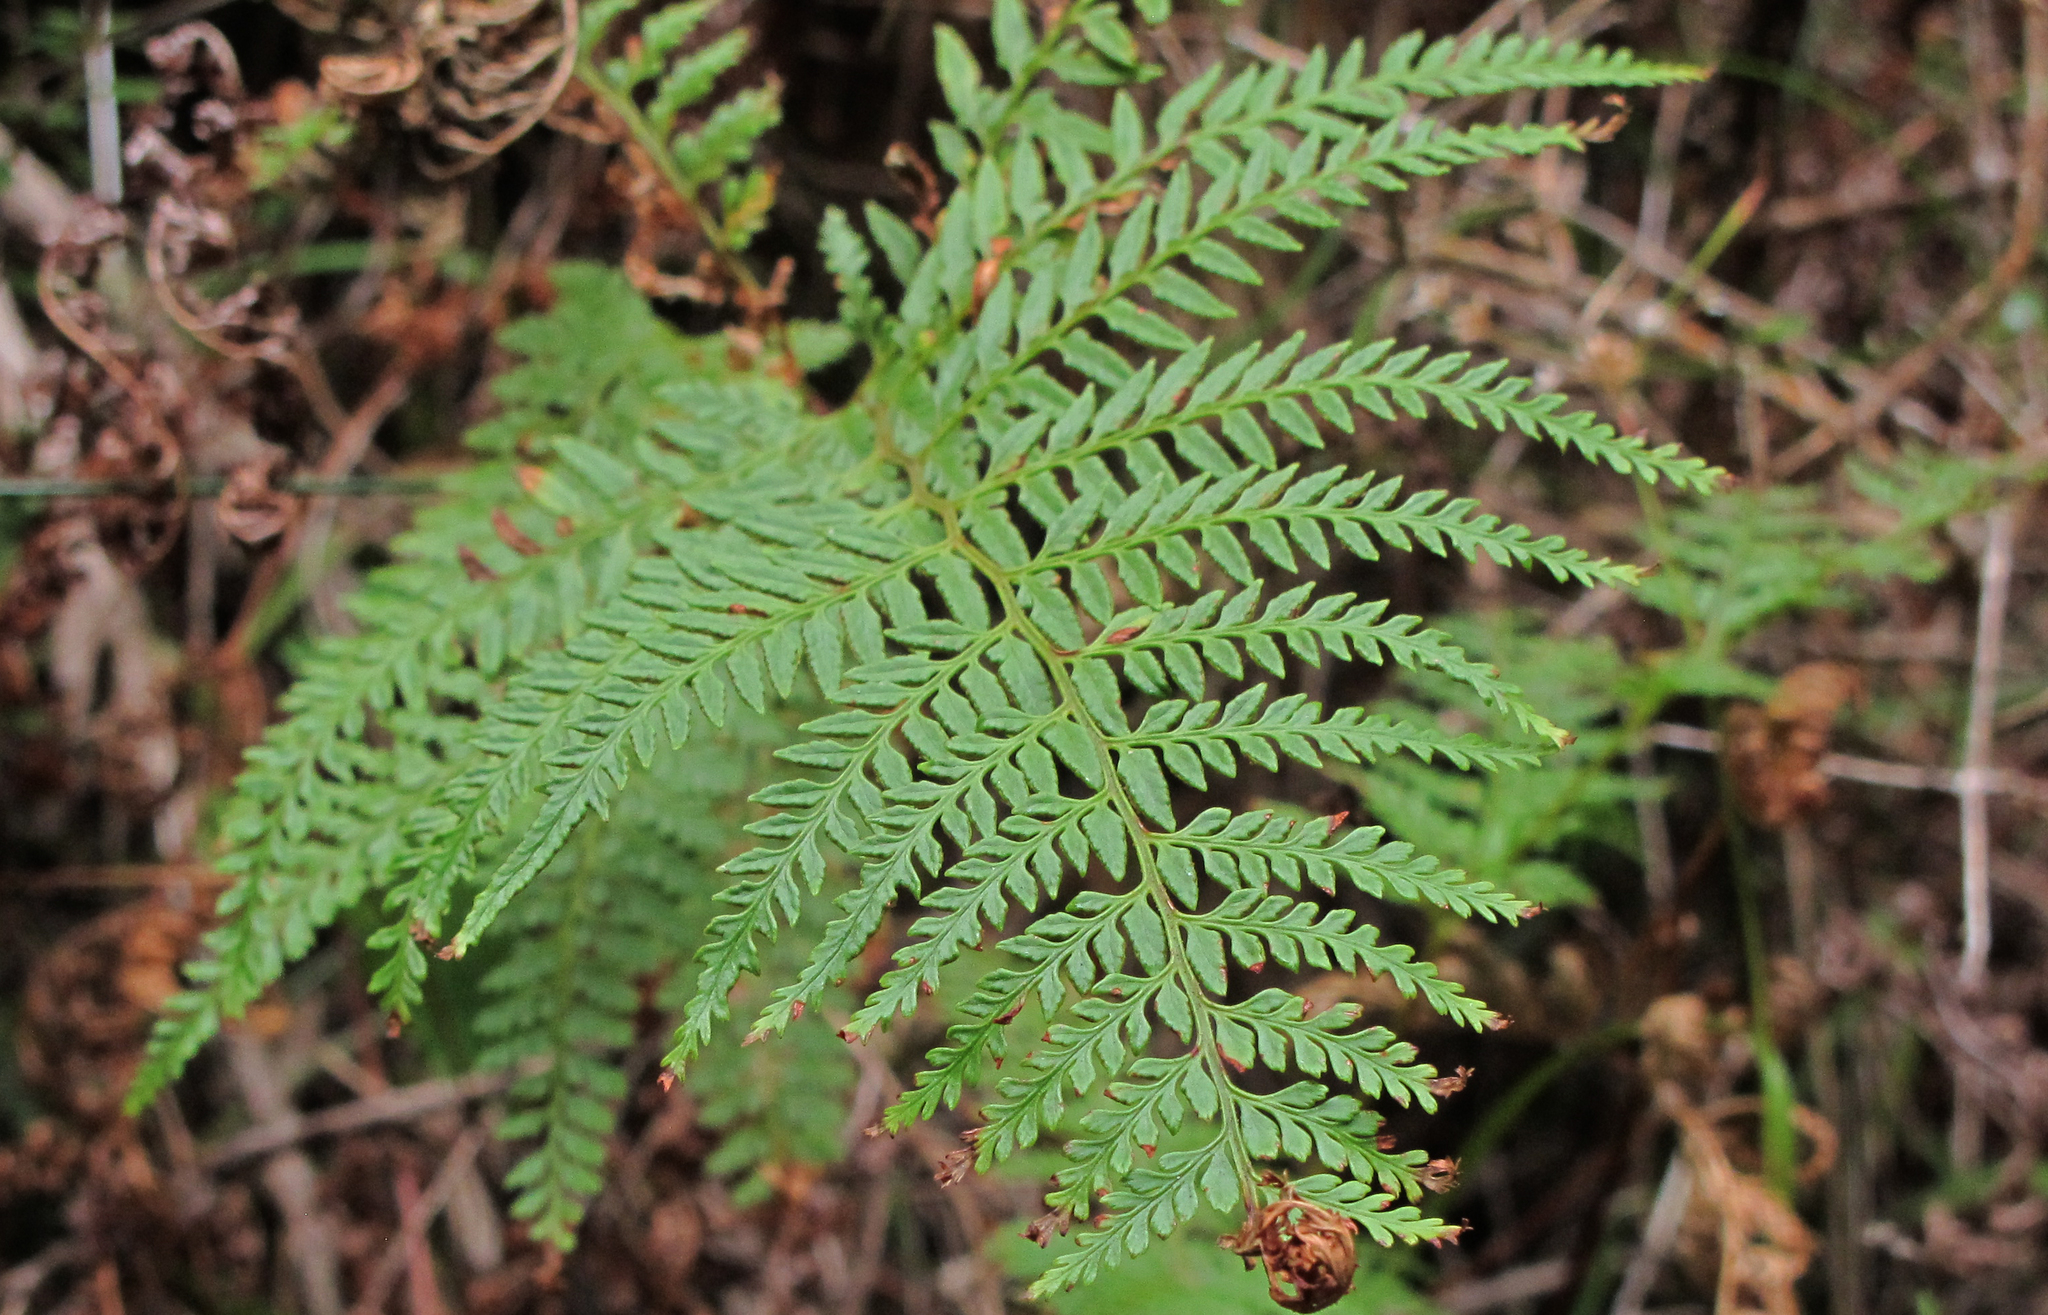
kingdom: Plantae
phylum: Tracheophyta
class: Polypodiopsida
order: Polypodiales
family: Dennstaedtiaceae
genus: Paesia
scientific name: Paesia scaberula
